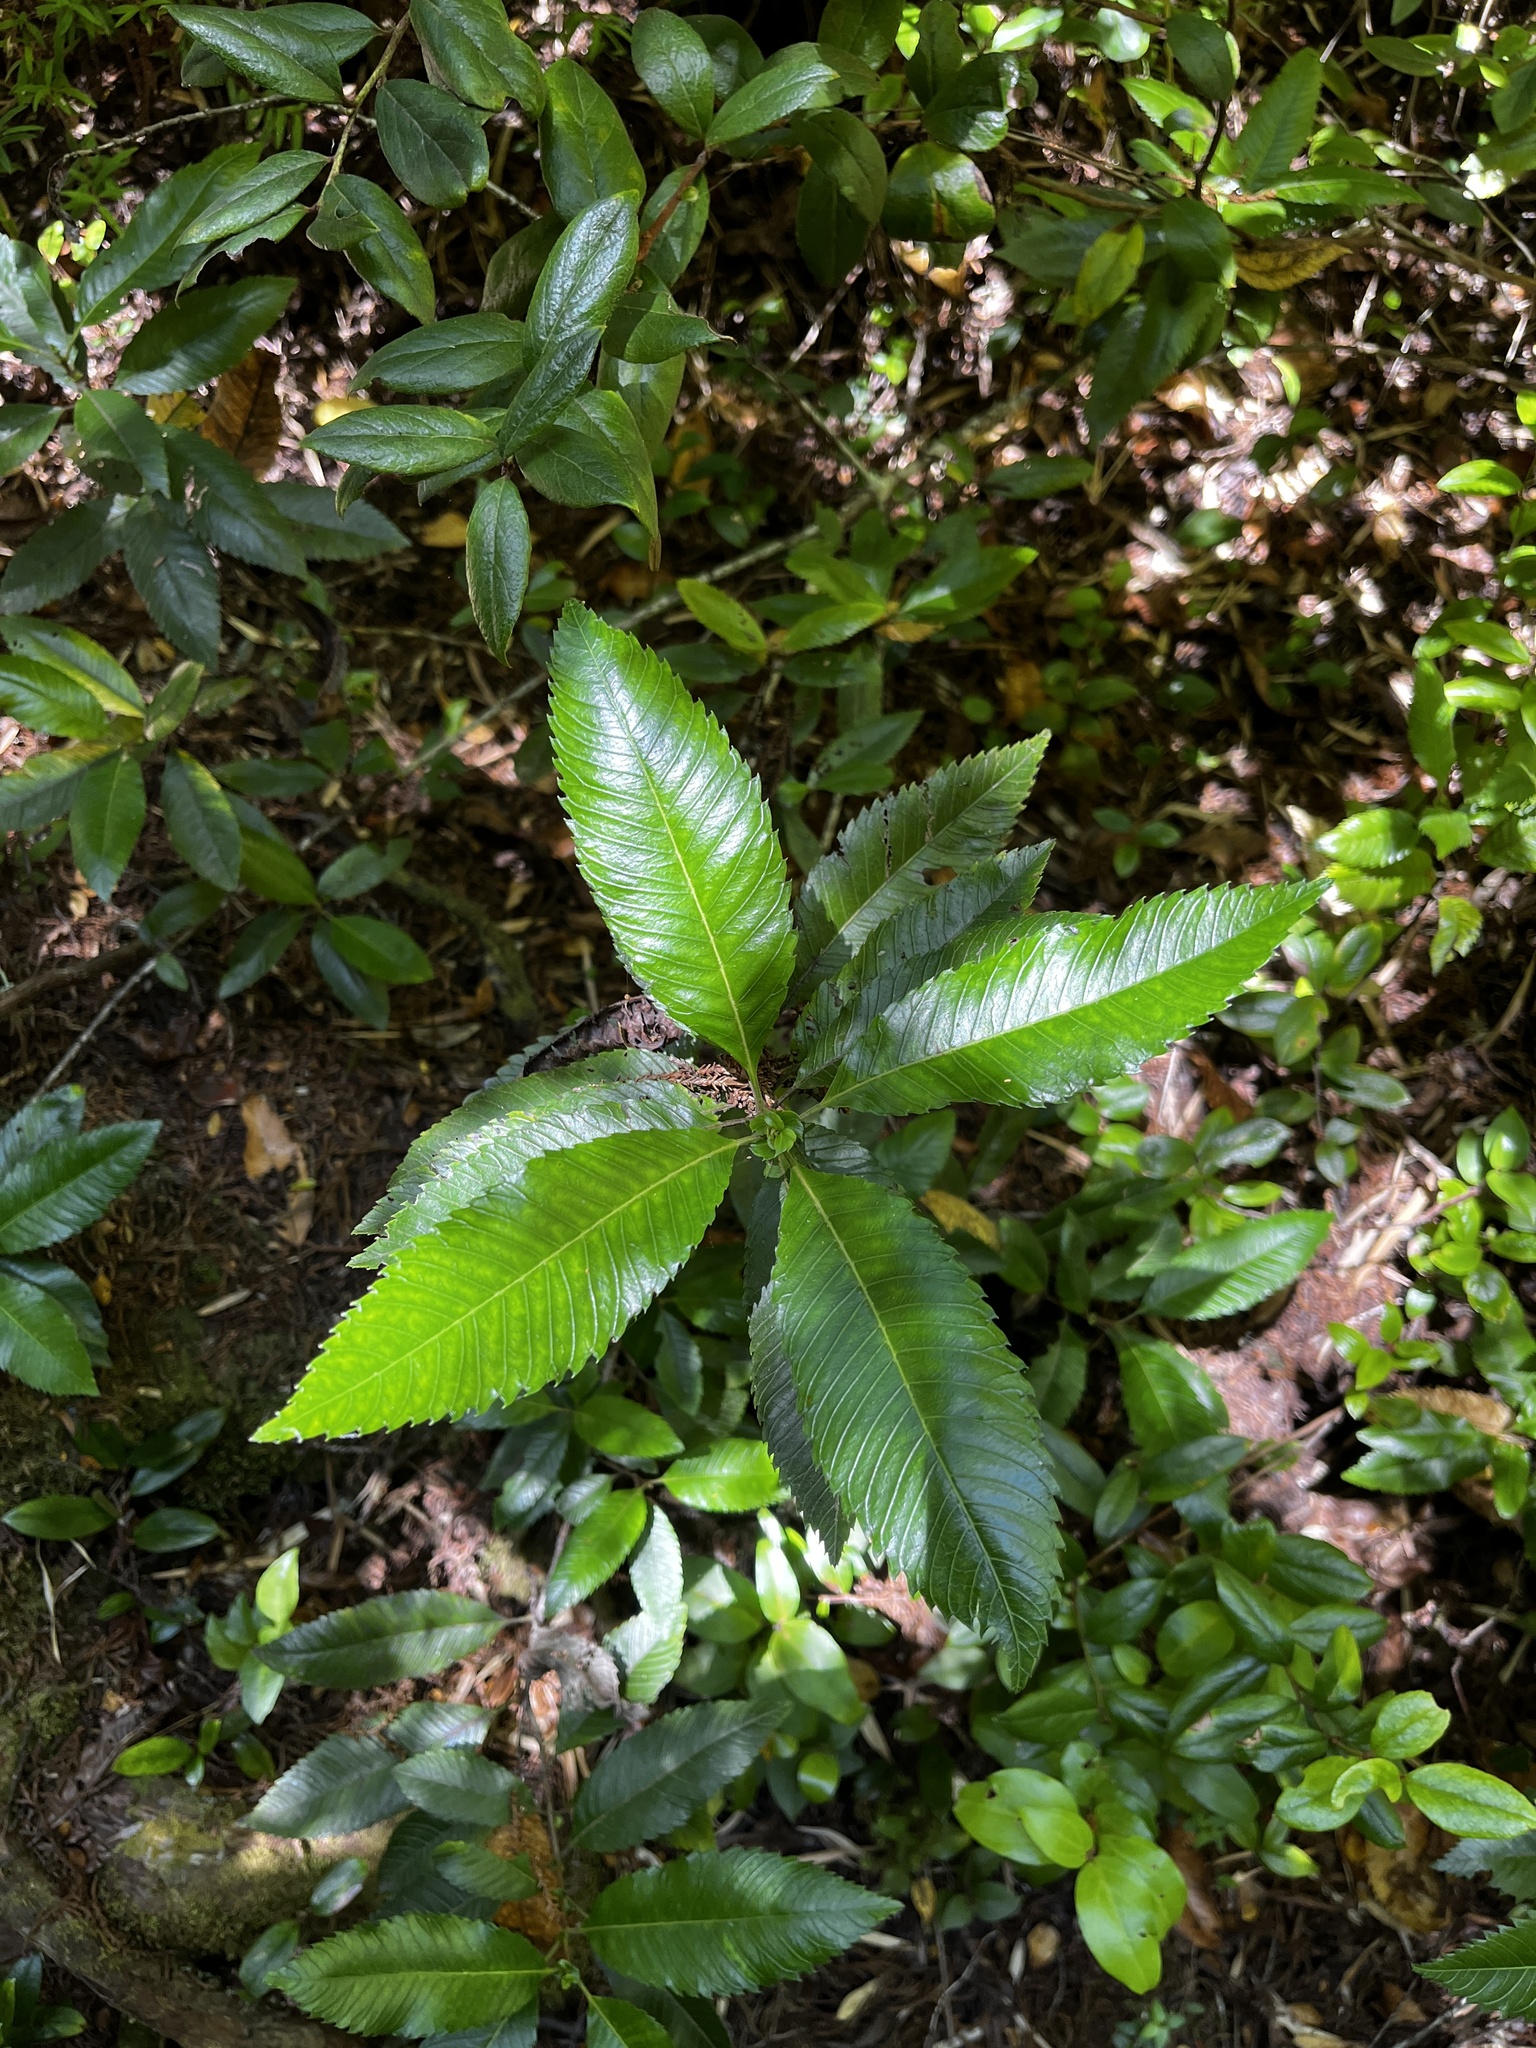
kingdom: Plantae
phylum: Tracheophyta
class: Magnoliopsida
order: Oxalidales
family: Cunoniaceae
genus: Caldcluvia
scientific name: Caldcluvia paniculata
